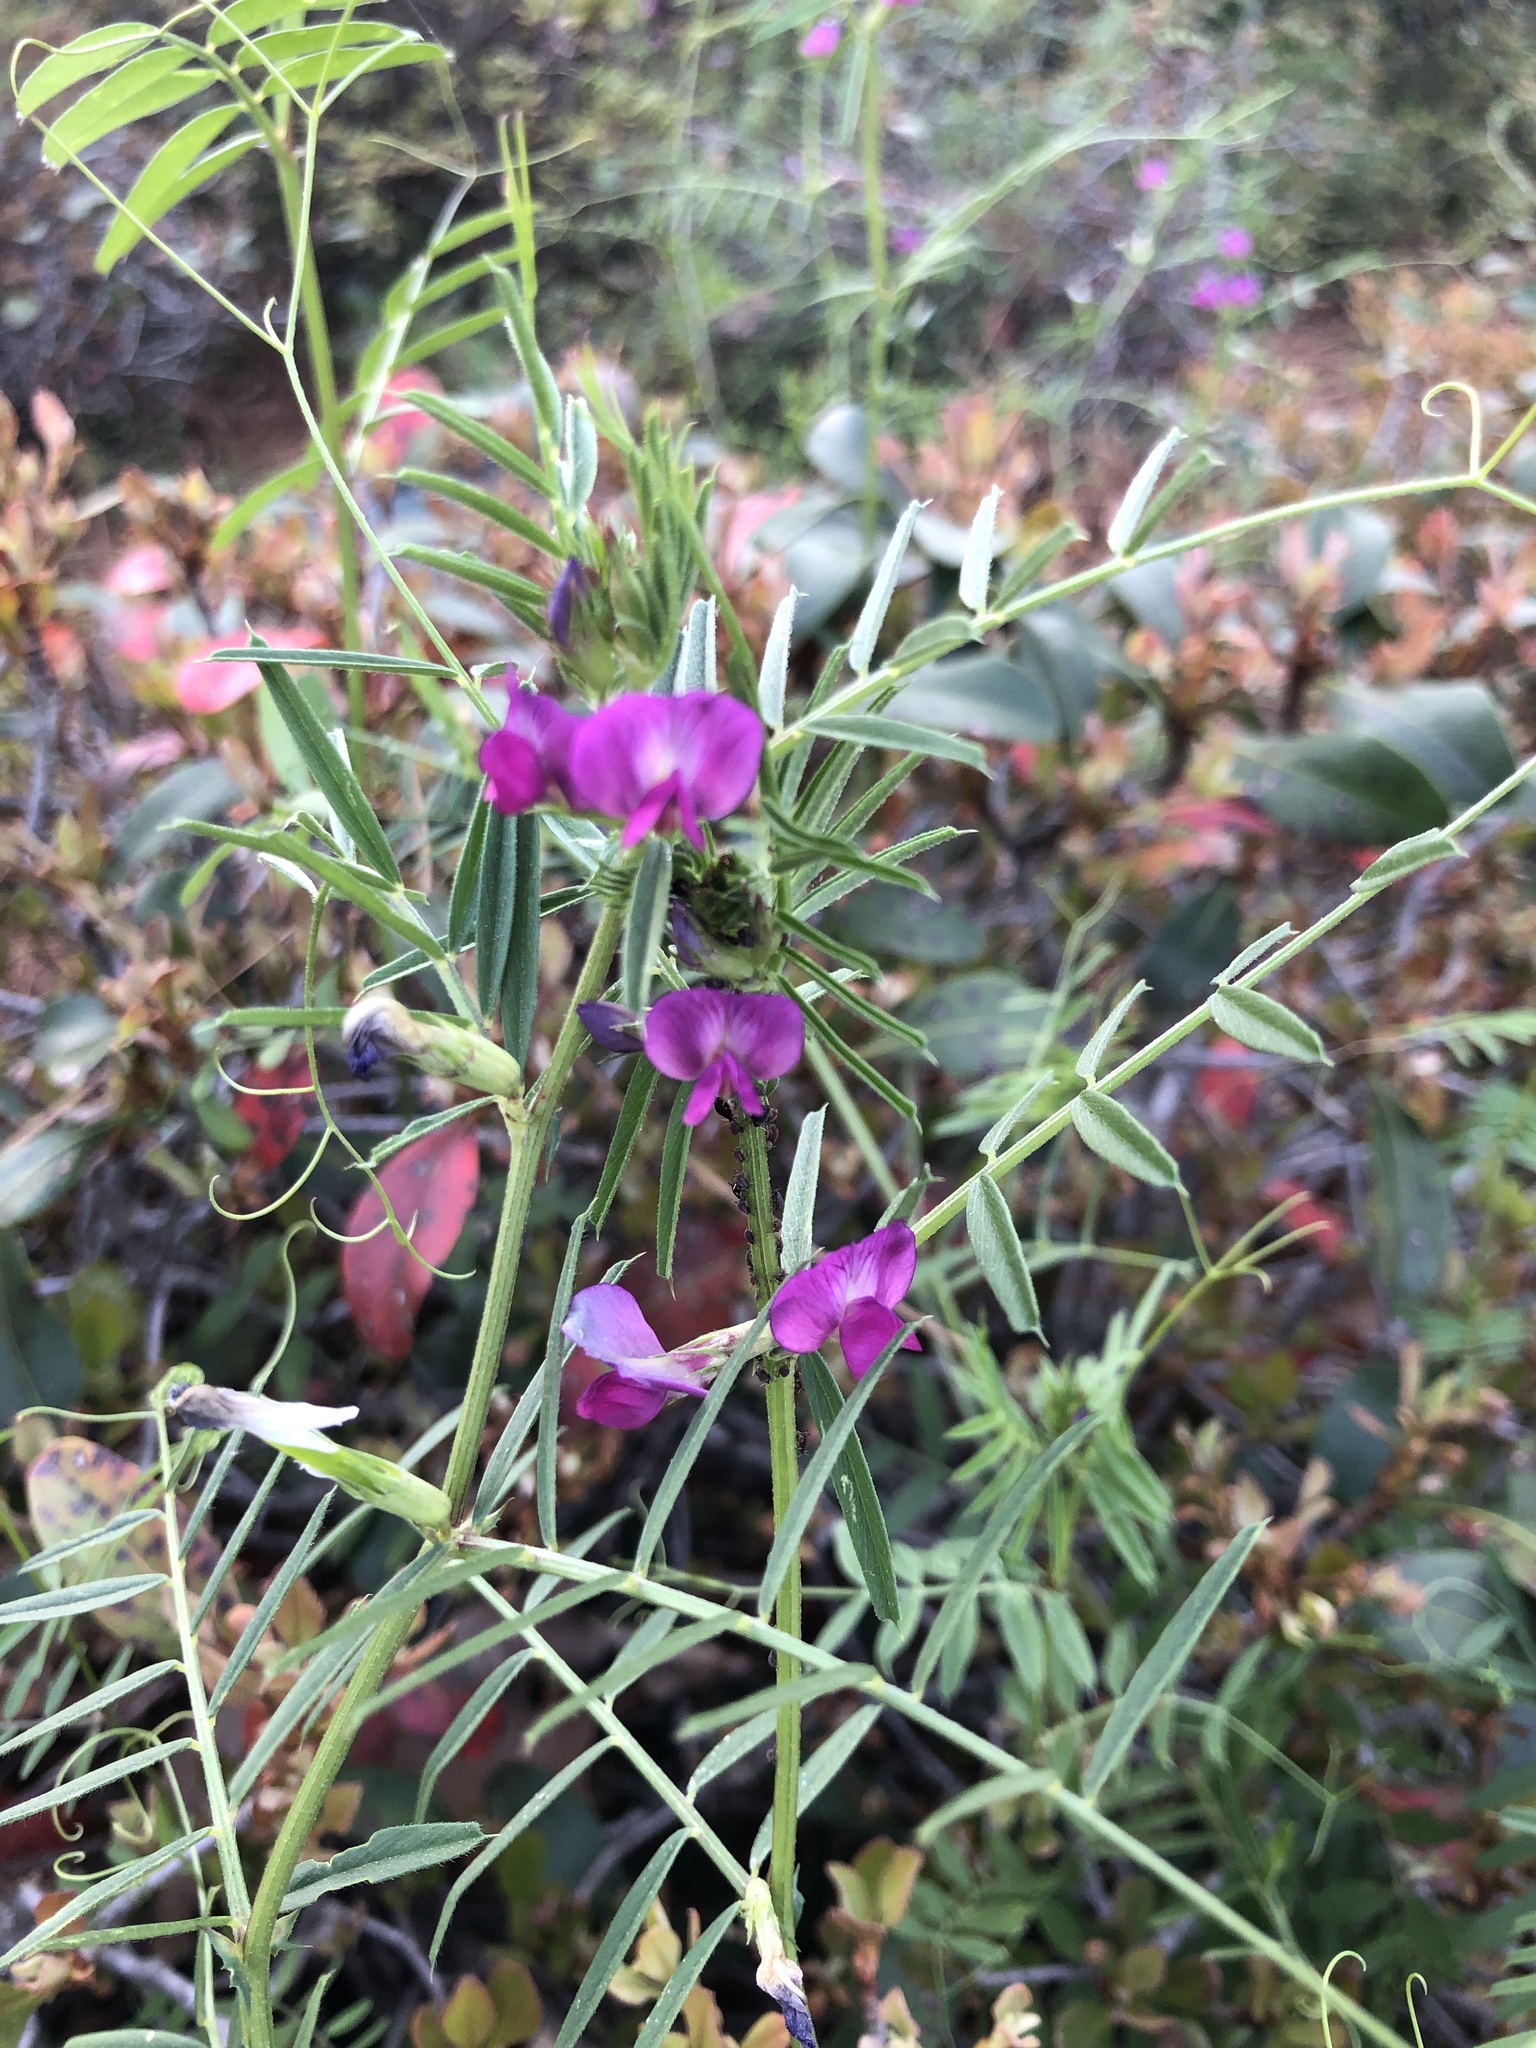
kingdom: Plantae
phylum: Tracheophyta
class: Magnoliopsida
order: Fabales
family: Fabaceae
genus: Vicia
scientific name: Vicia sativa
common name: Garden vetch
